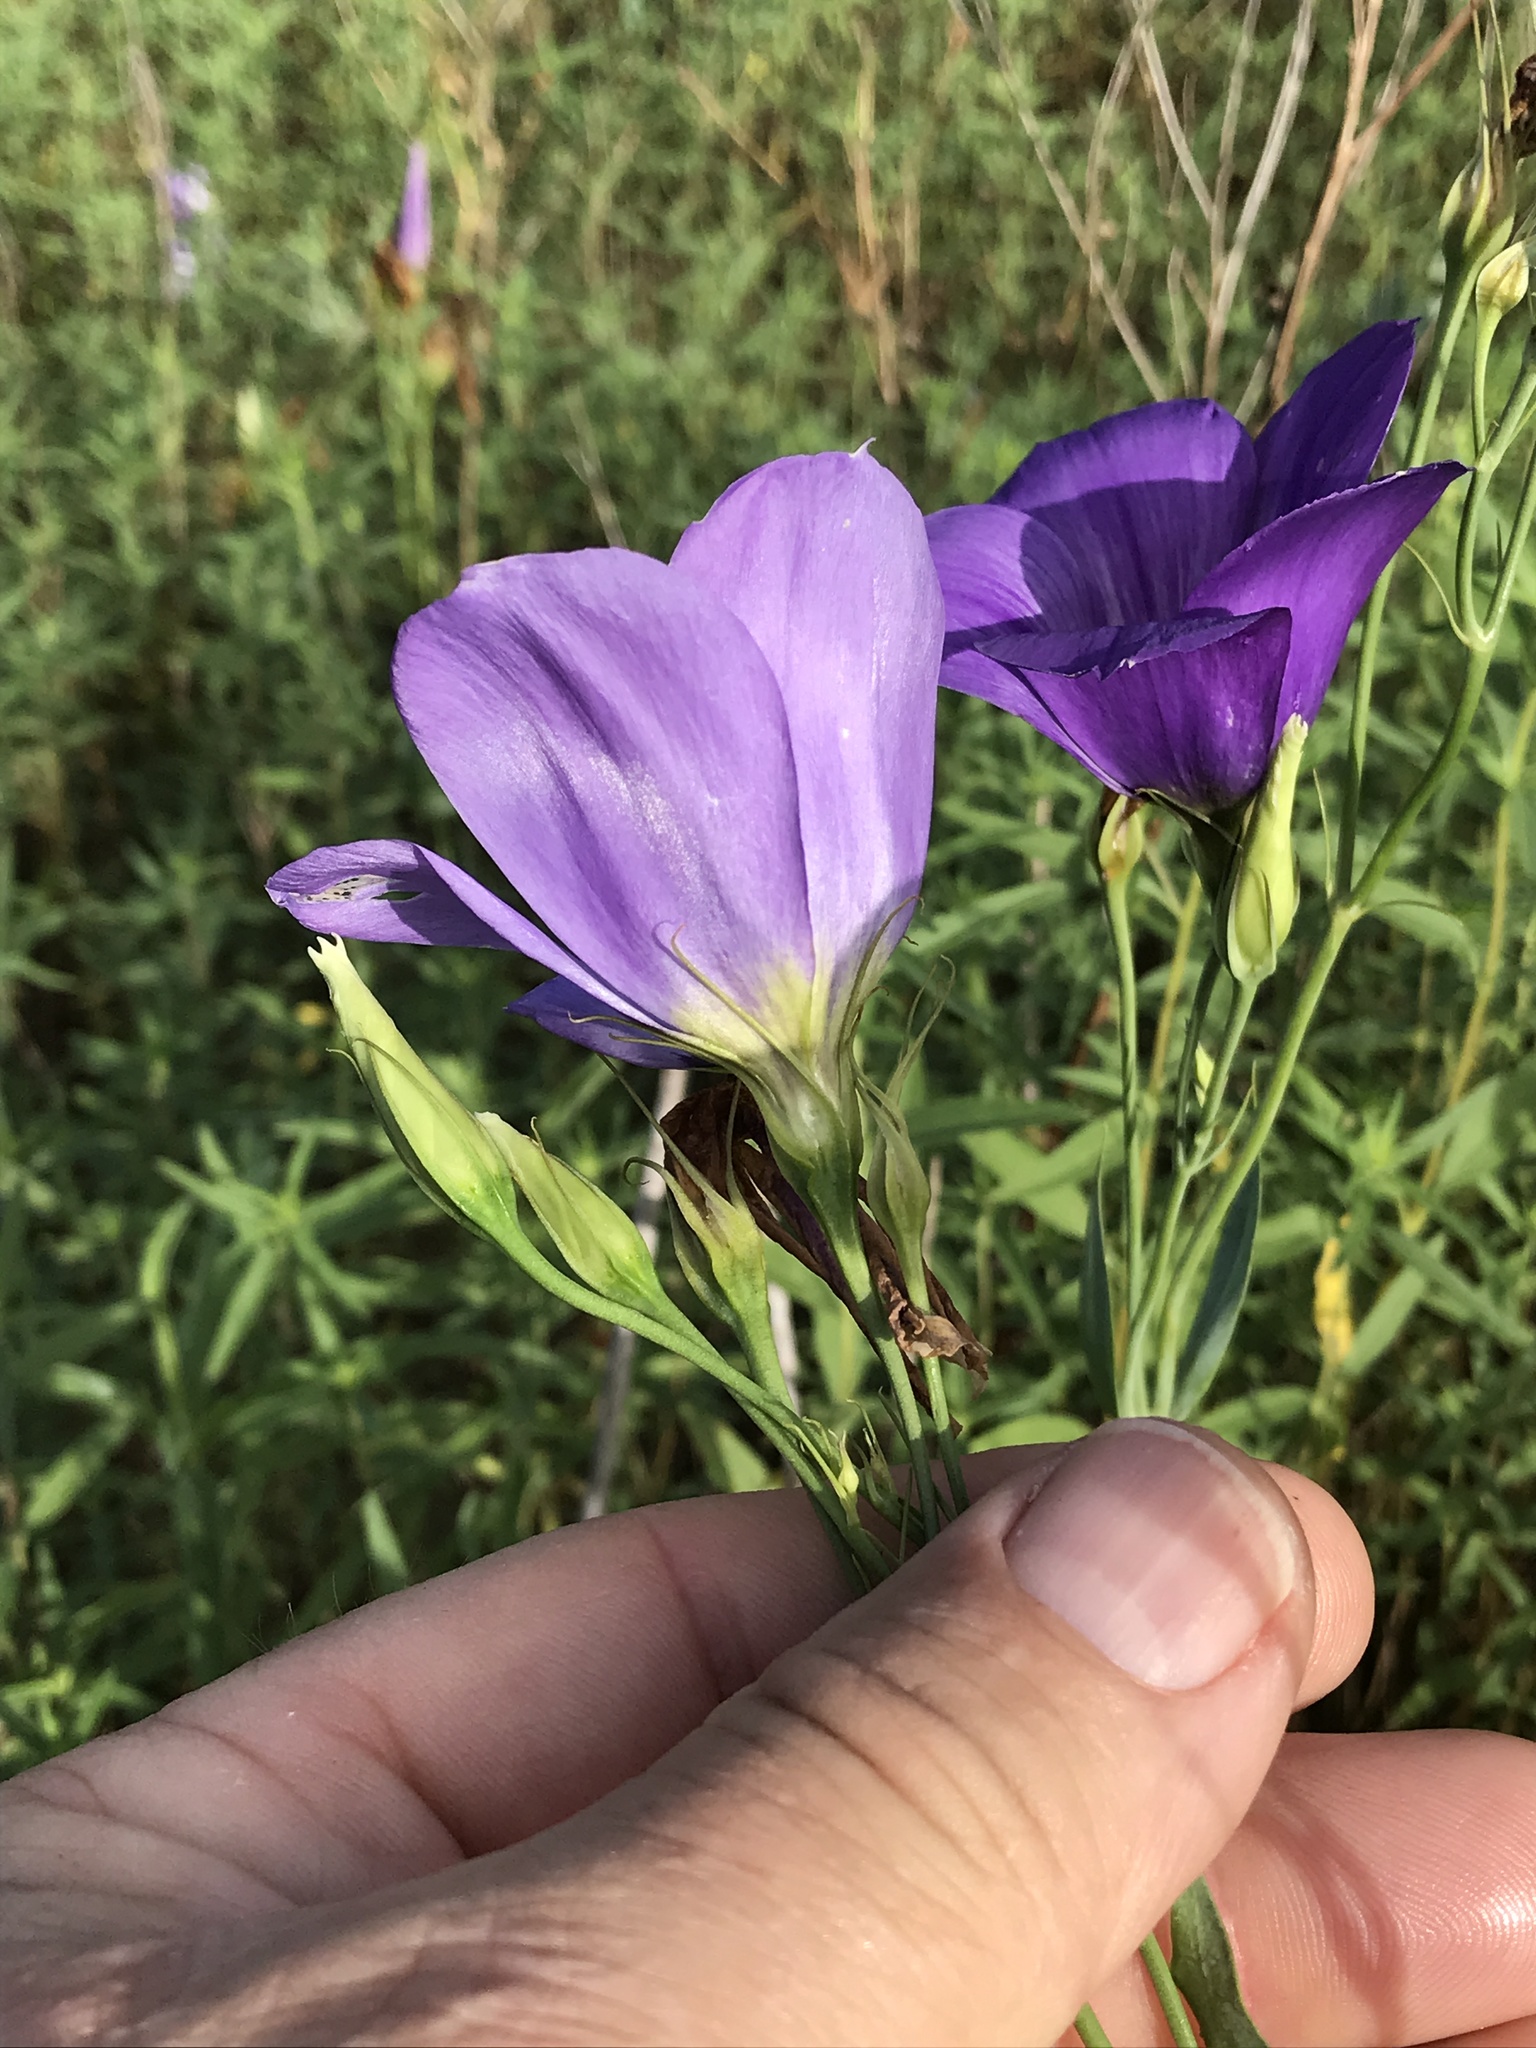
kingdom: Plantae
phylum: Tracheophyta
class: Magnoliopsida
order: Gentianales
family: Gentianaceae
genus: Eustoma
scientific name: Eustoma russellianum
